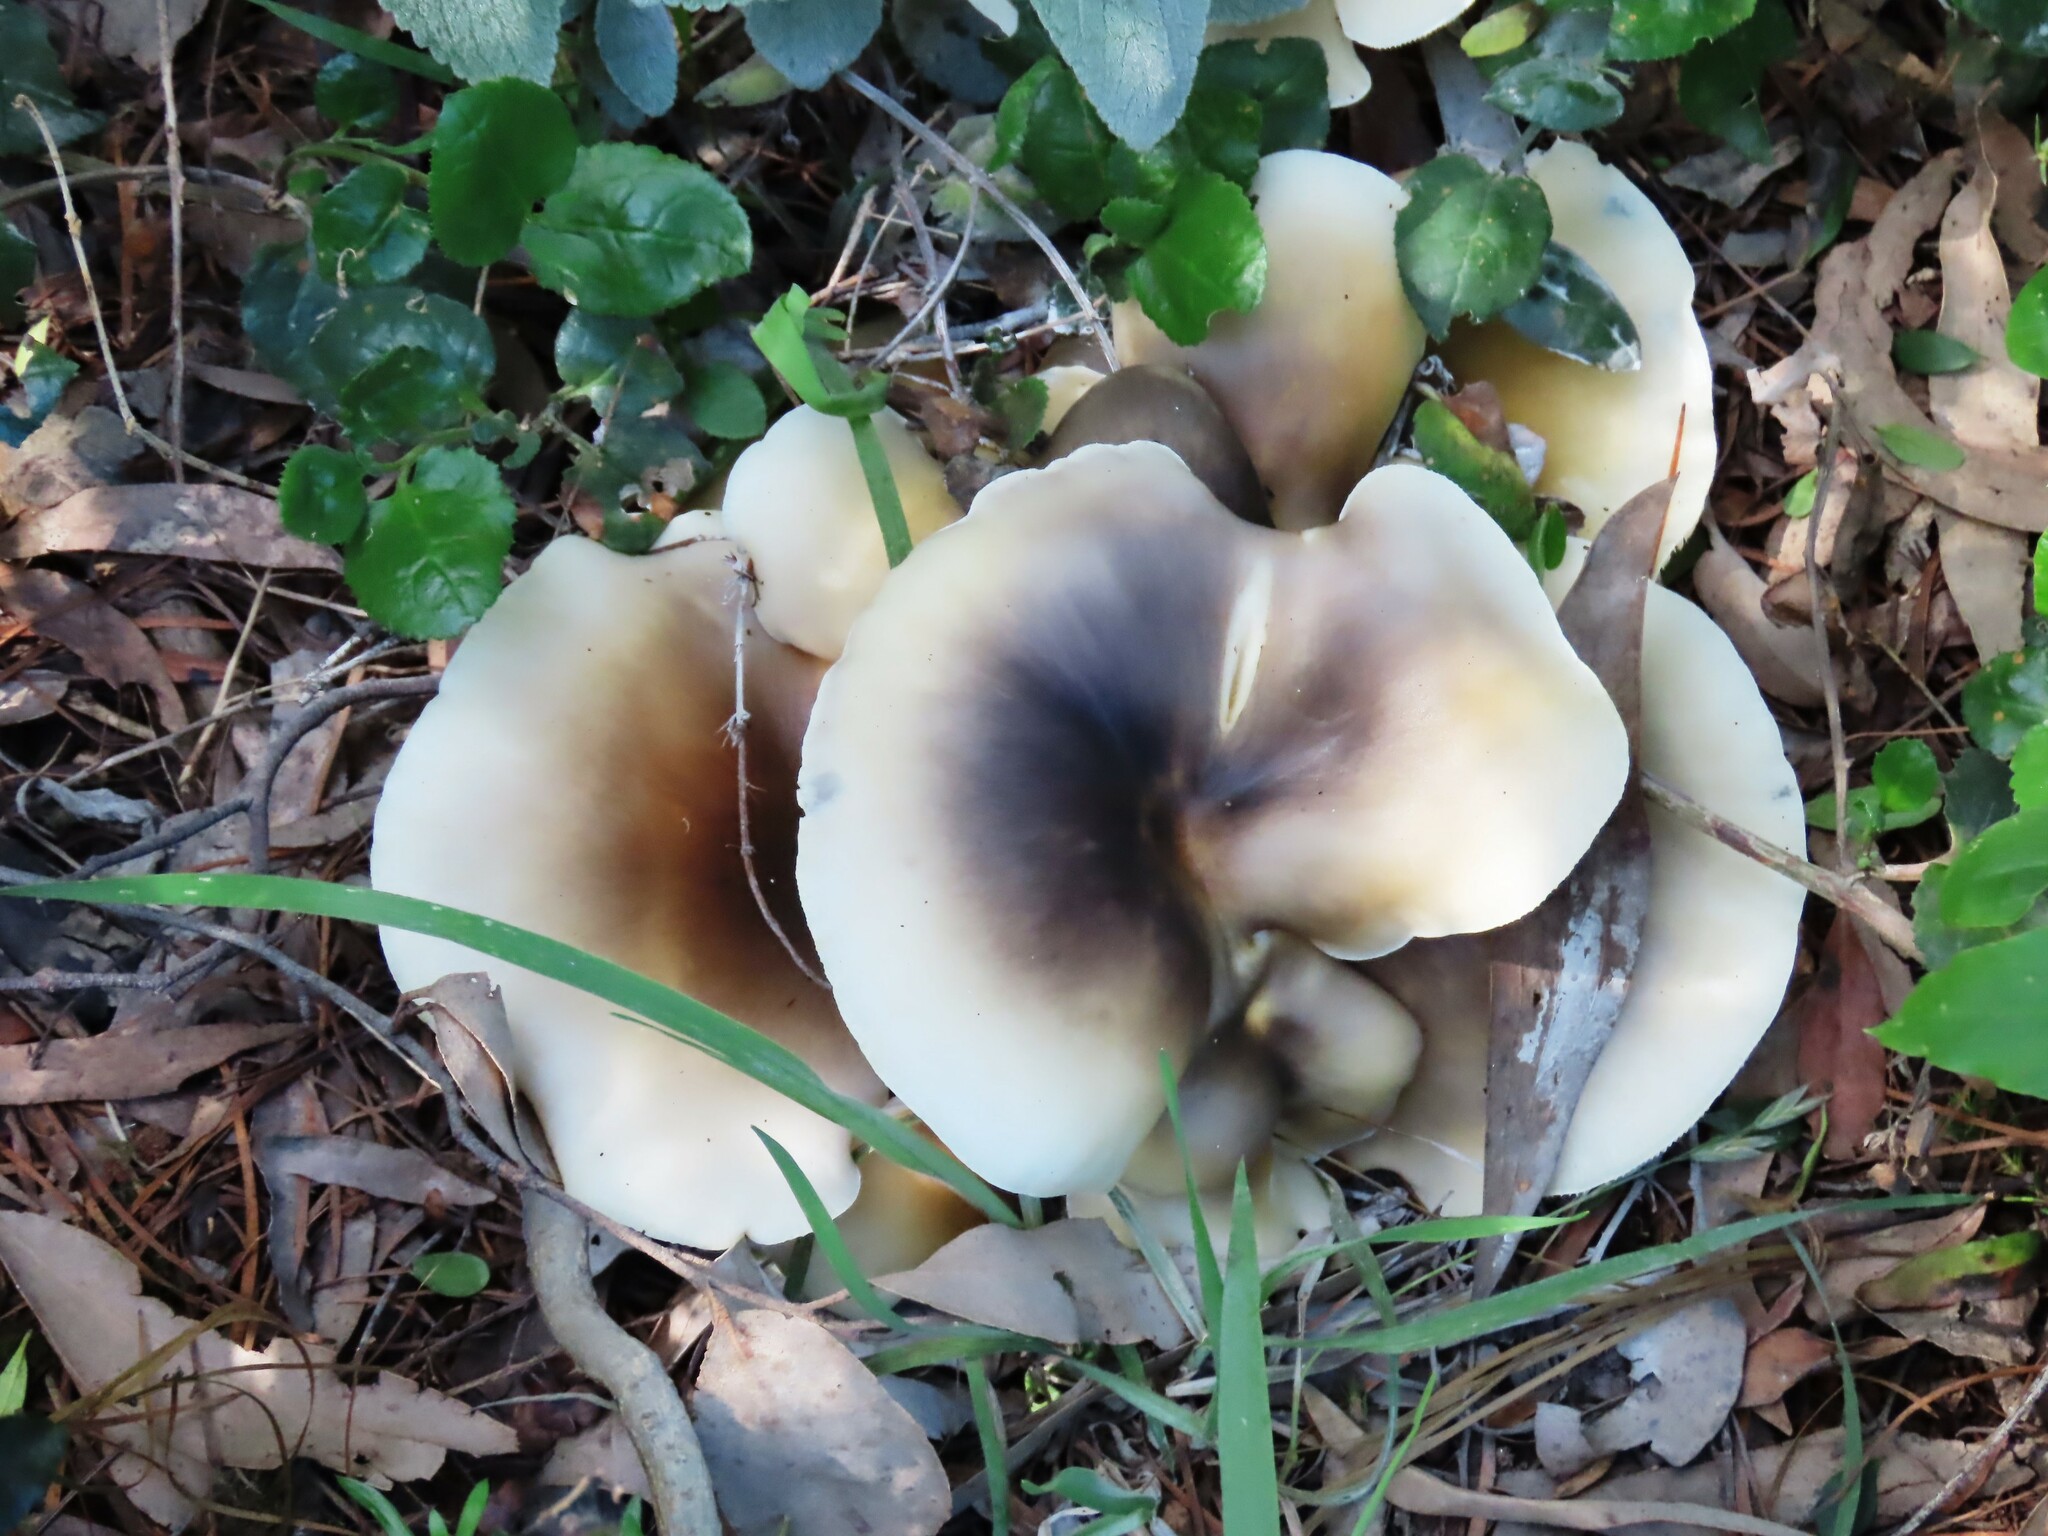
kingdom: Fungi
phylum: Basidiomycota
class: Agaricomycetes
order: Agaricales
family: Omphalotaceae
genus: Omphalotus
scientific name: Omphalotus nidiformis
